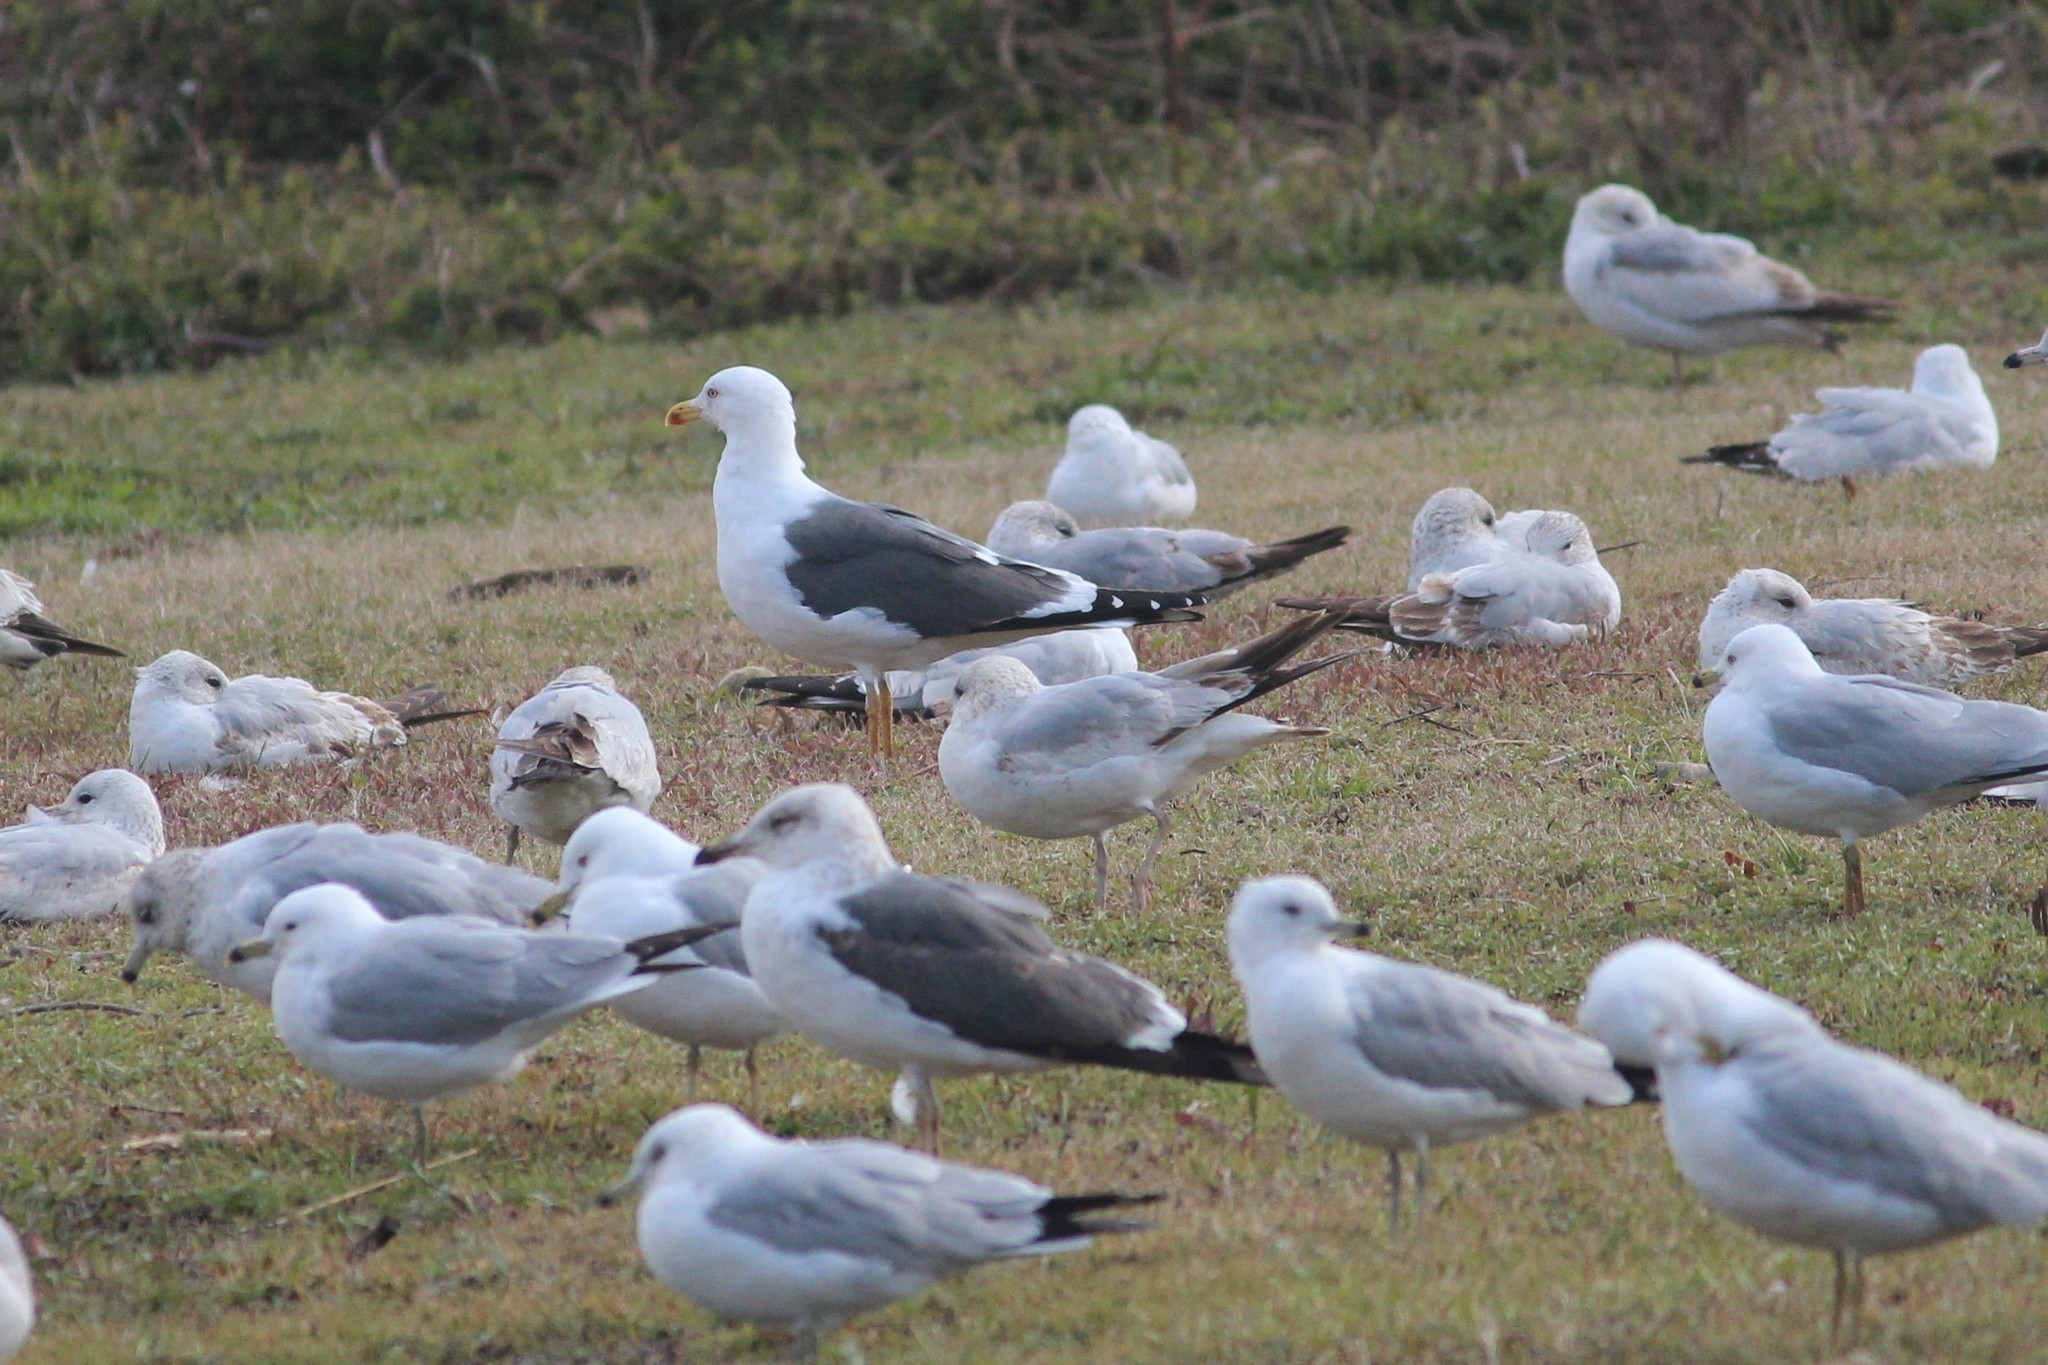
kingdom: Animalia
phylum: Chordata
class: Aves
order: Charadriiformes
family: Laridae
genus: Larus
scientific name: Larus fuscus
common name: Lesser black-backed gull
